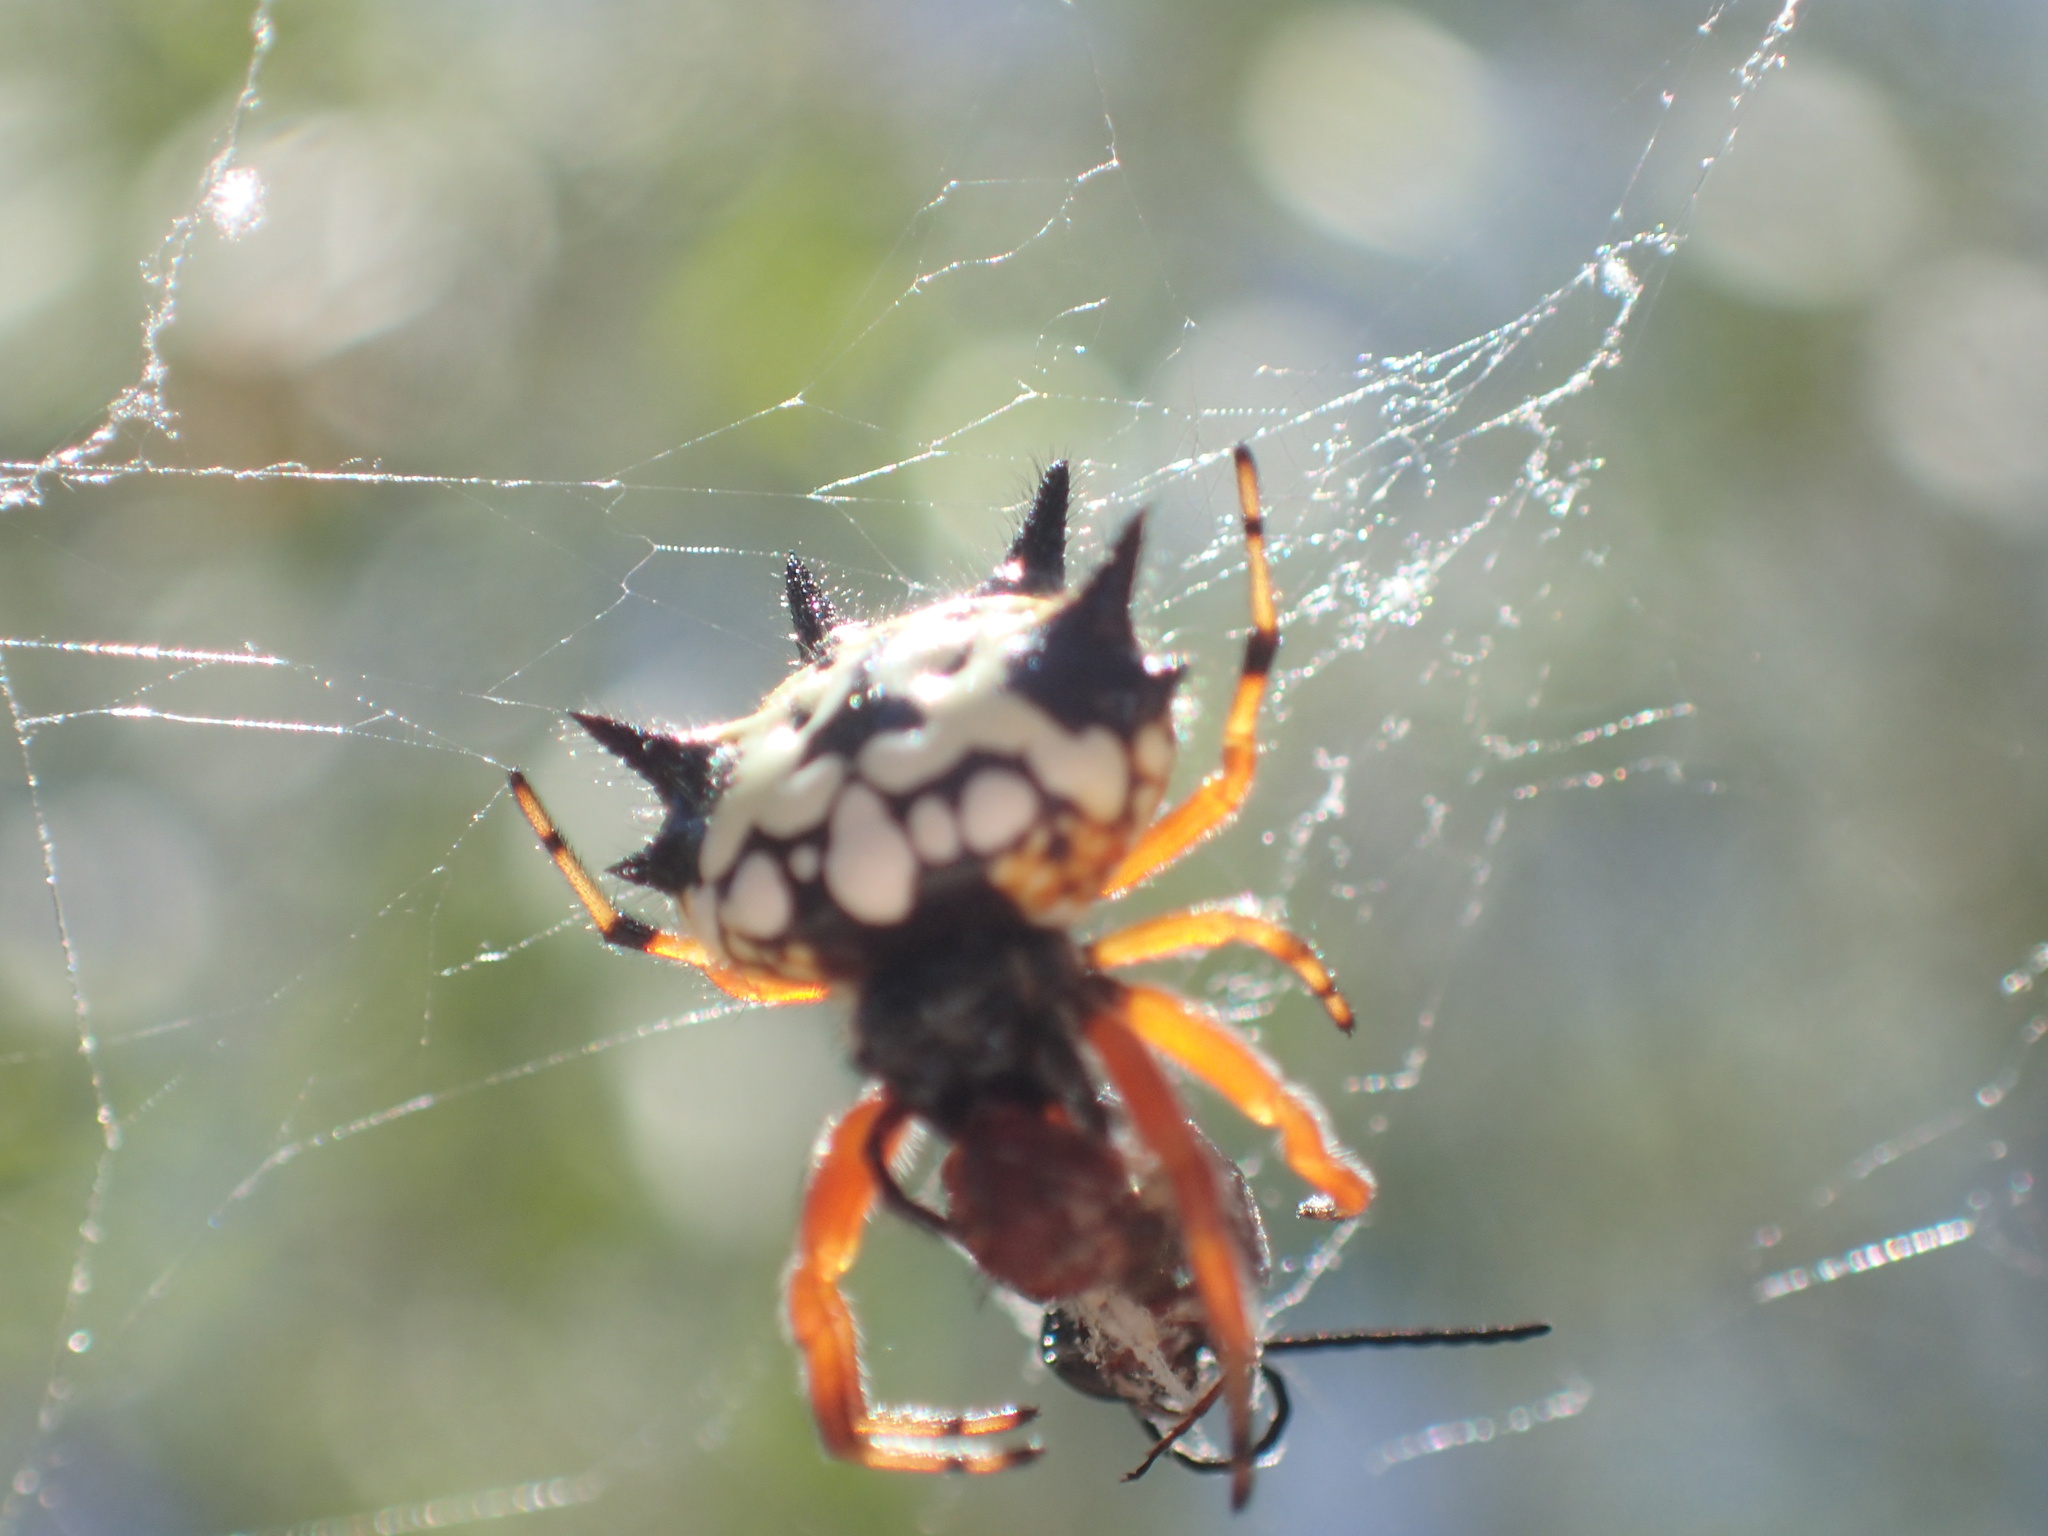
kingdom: Animalia
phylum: Arthropoda
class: Arachnida
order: Araneae
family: Araneidae
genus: Austracantha
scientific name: Austracantha minax
